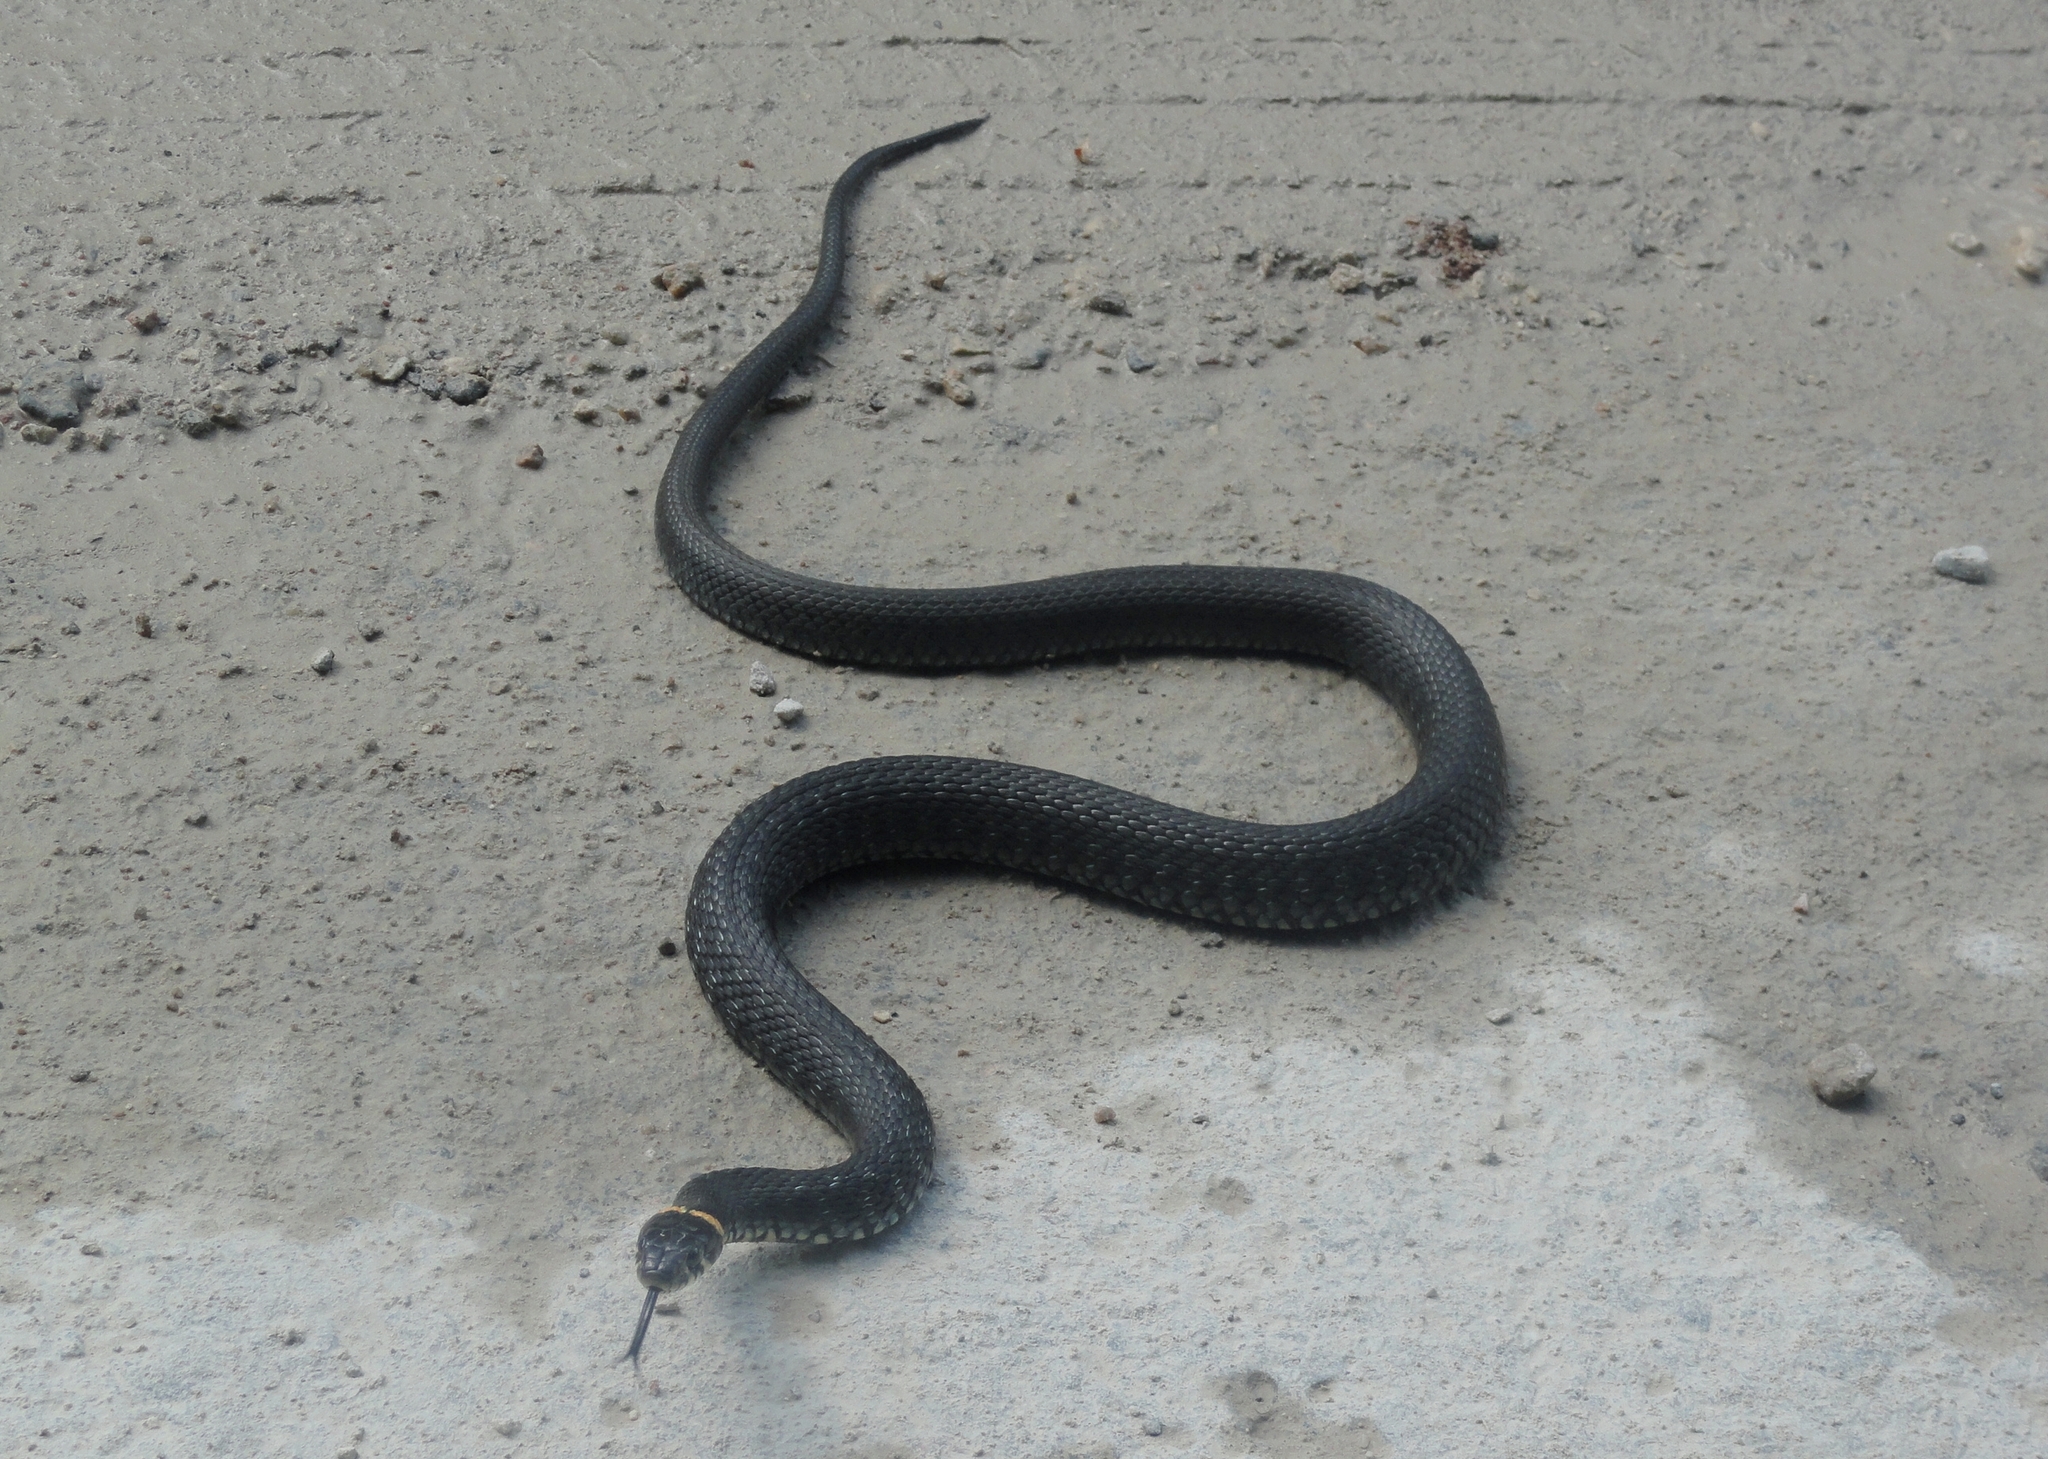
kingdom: Animalia
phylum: Chordata
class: Squamata
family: Colubridae
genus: Natrix
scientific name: Natrix natrix
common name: Grass snake
